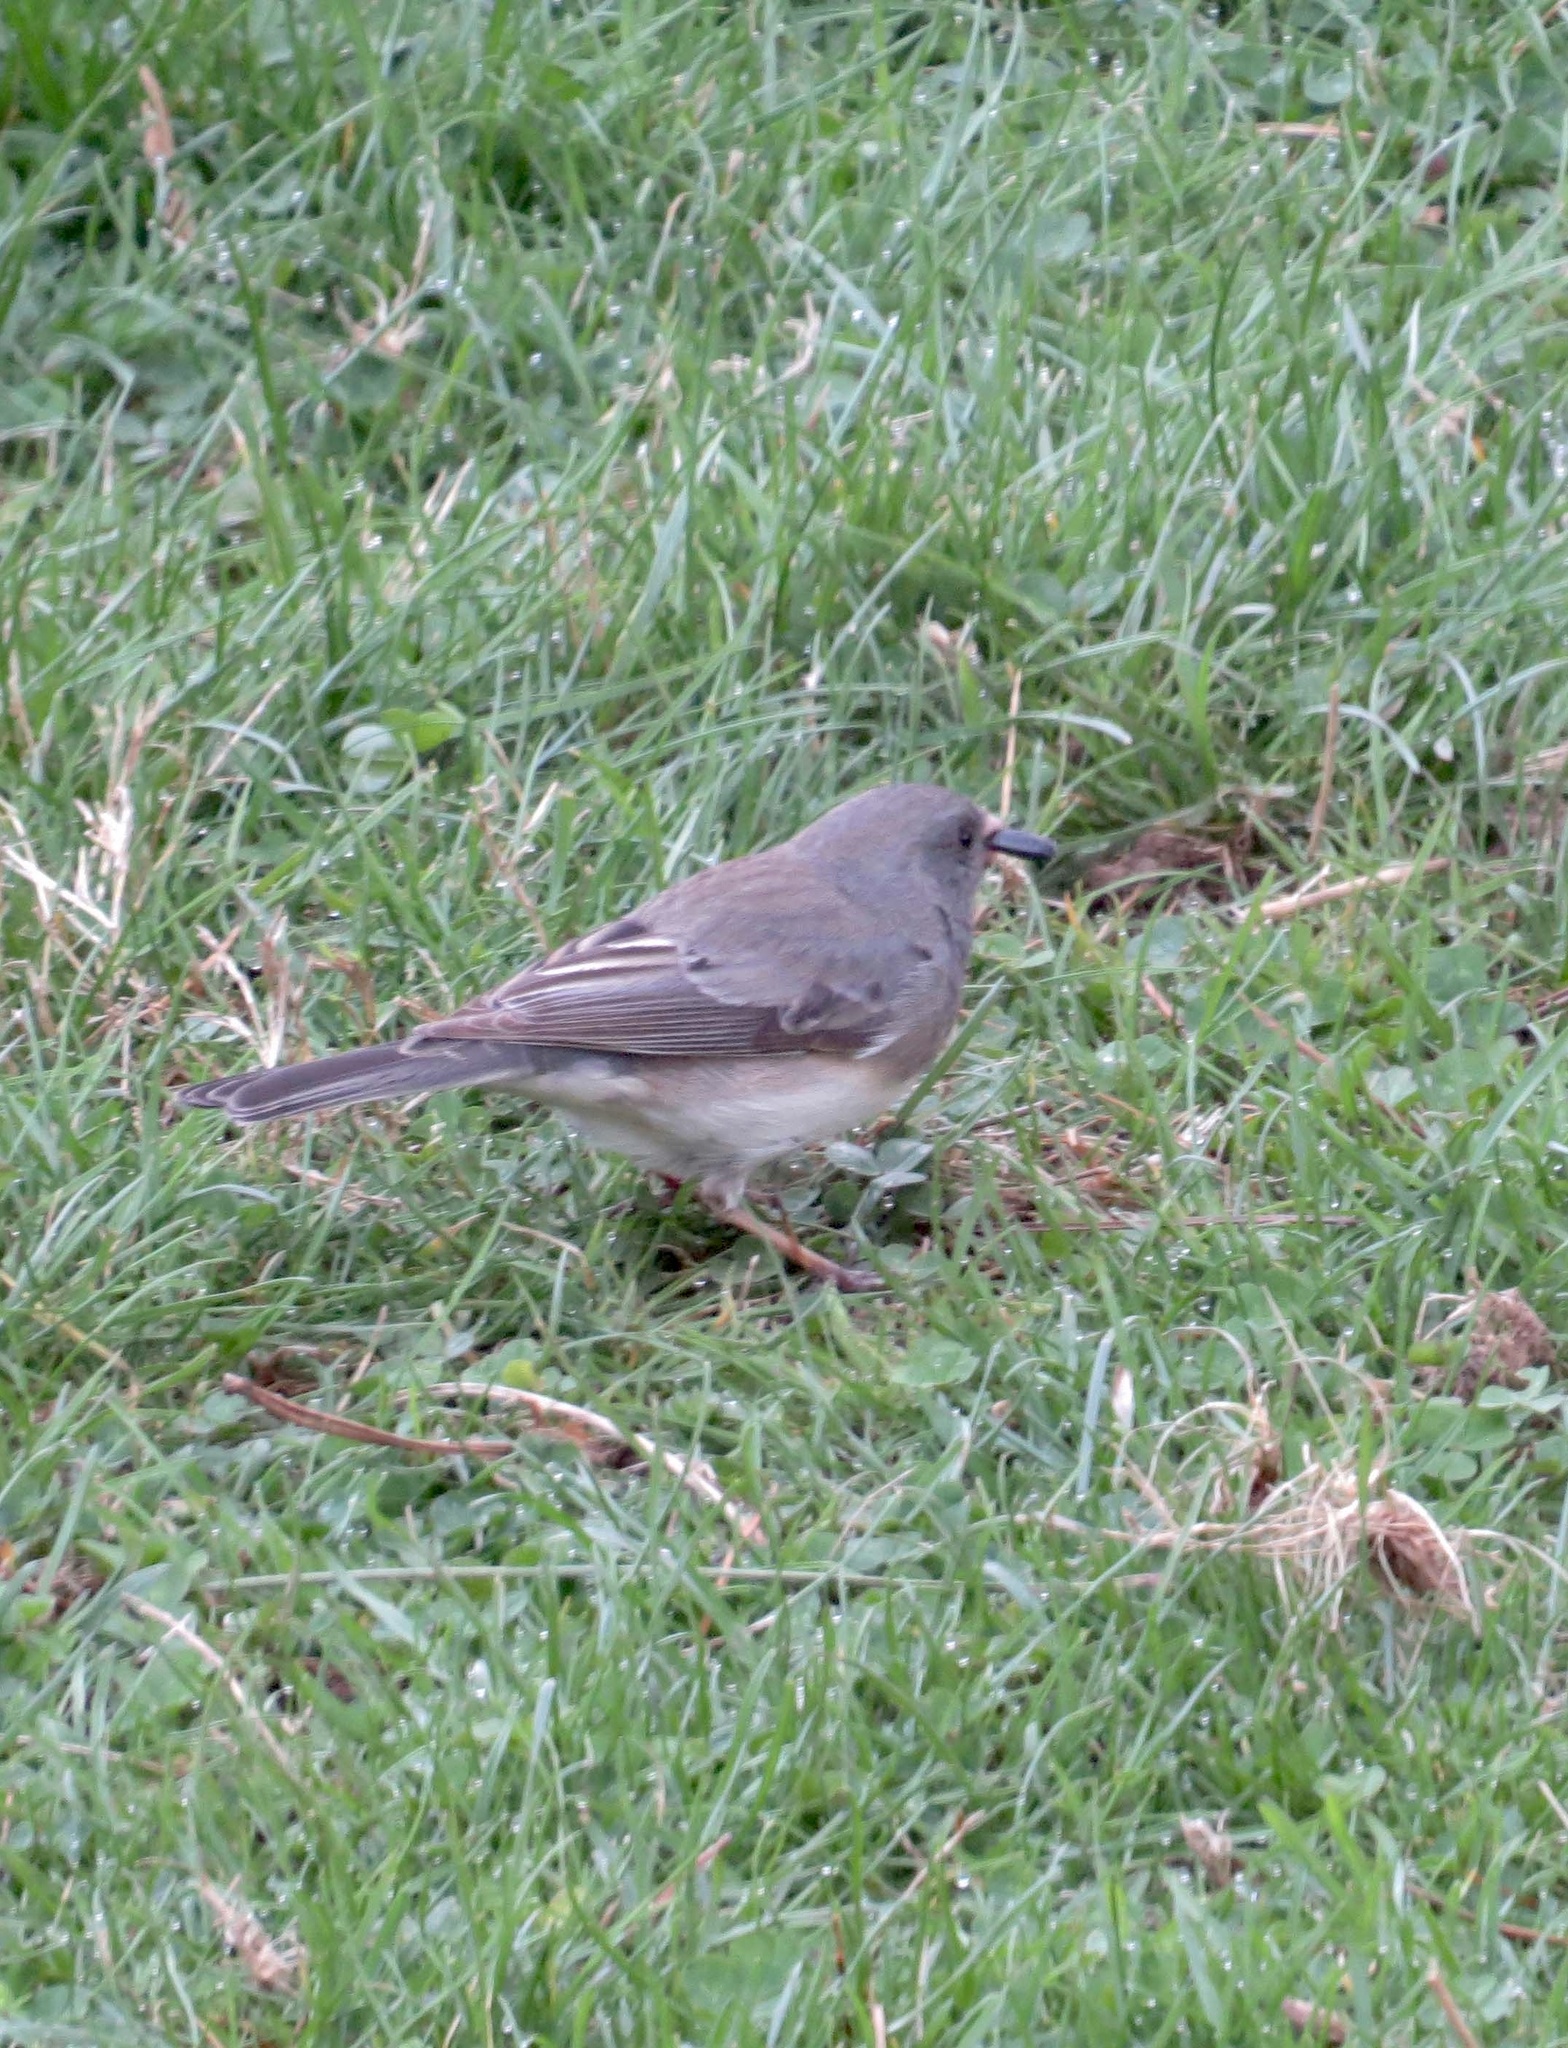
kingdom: Animalia
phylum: Chordata
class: Aves
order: Passeriformes
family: Passerellidae
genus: Junco
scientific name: Junco hyemalis
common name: Dark-eyed junco
